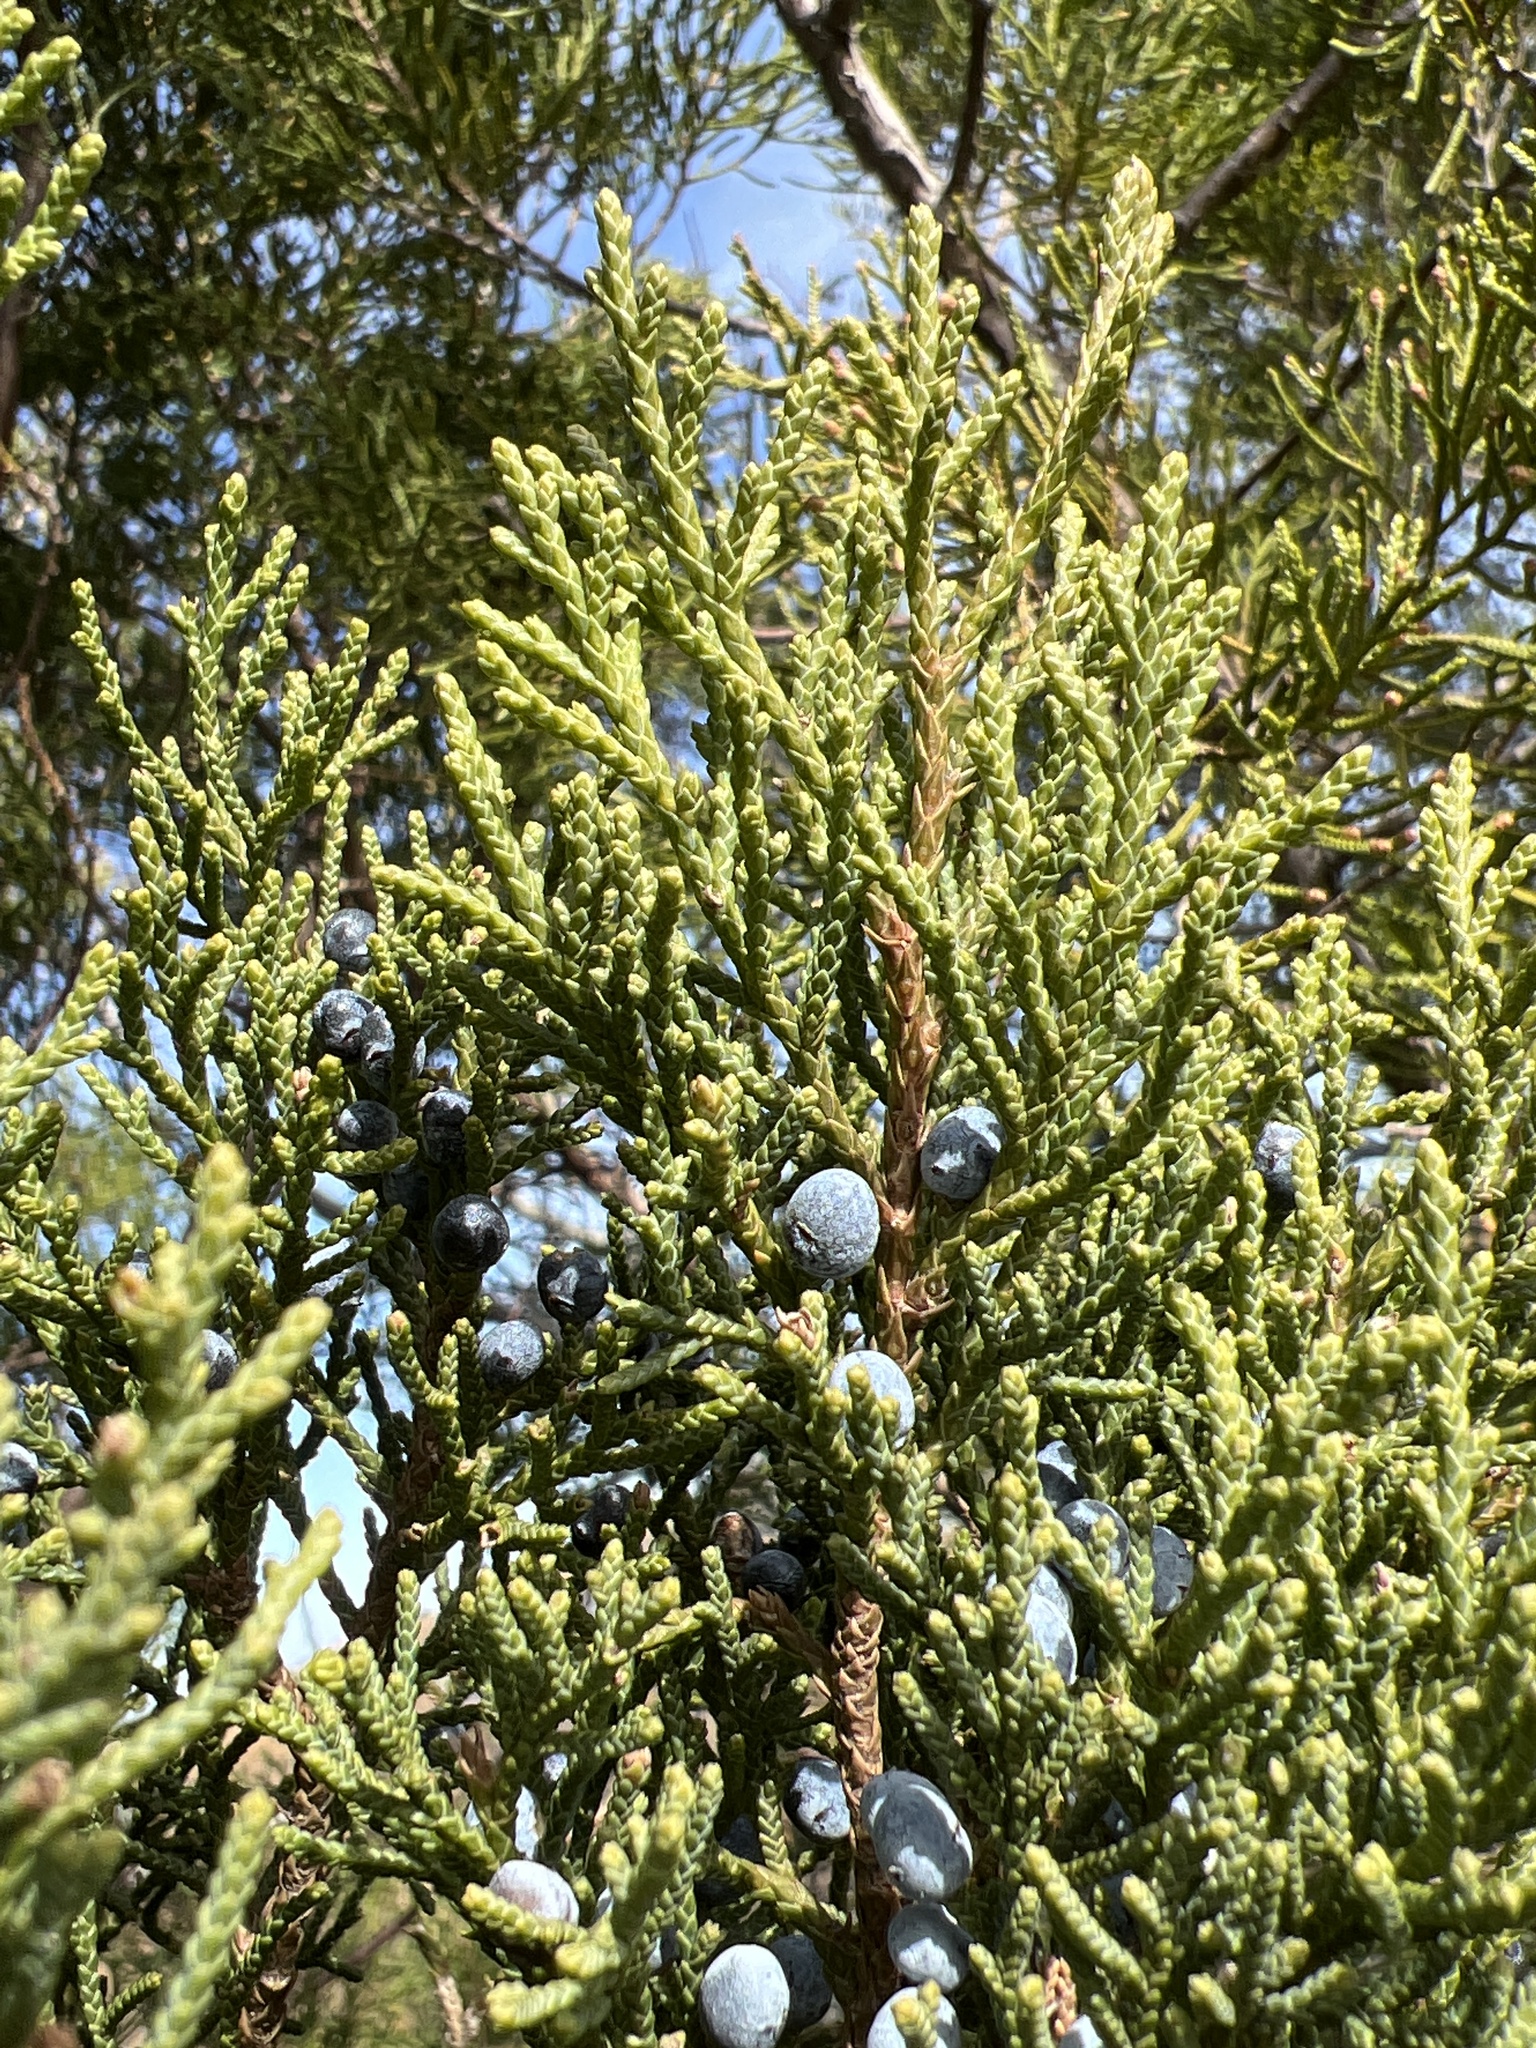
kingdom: Plantae
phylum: Tracheophyta
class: Pinopsida
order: Pinales
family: Cupressaceae
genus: Juniperus
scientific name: Juniperus virginiana
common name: Red juniper
